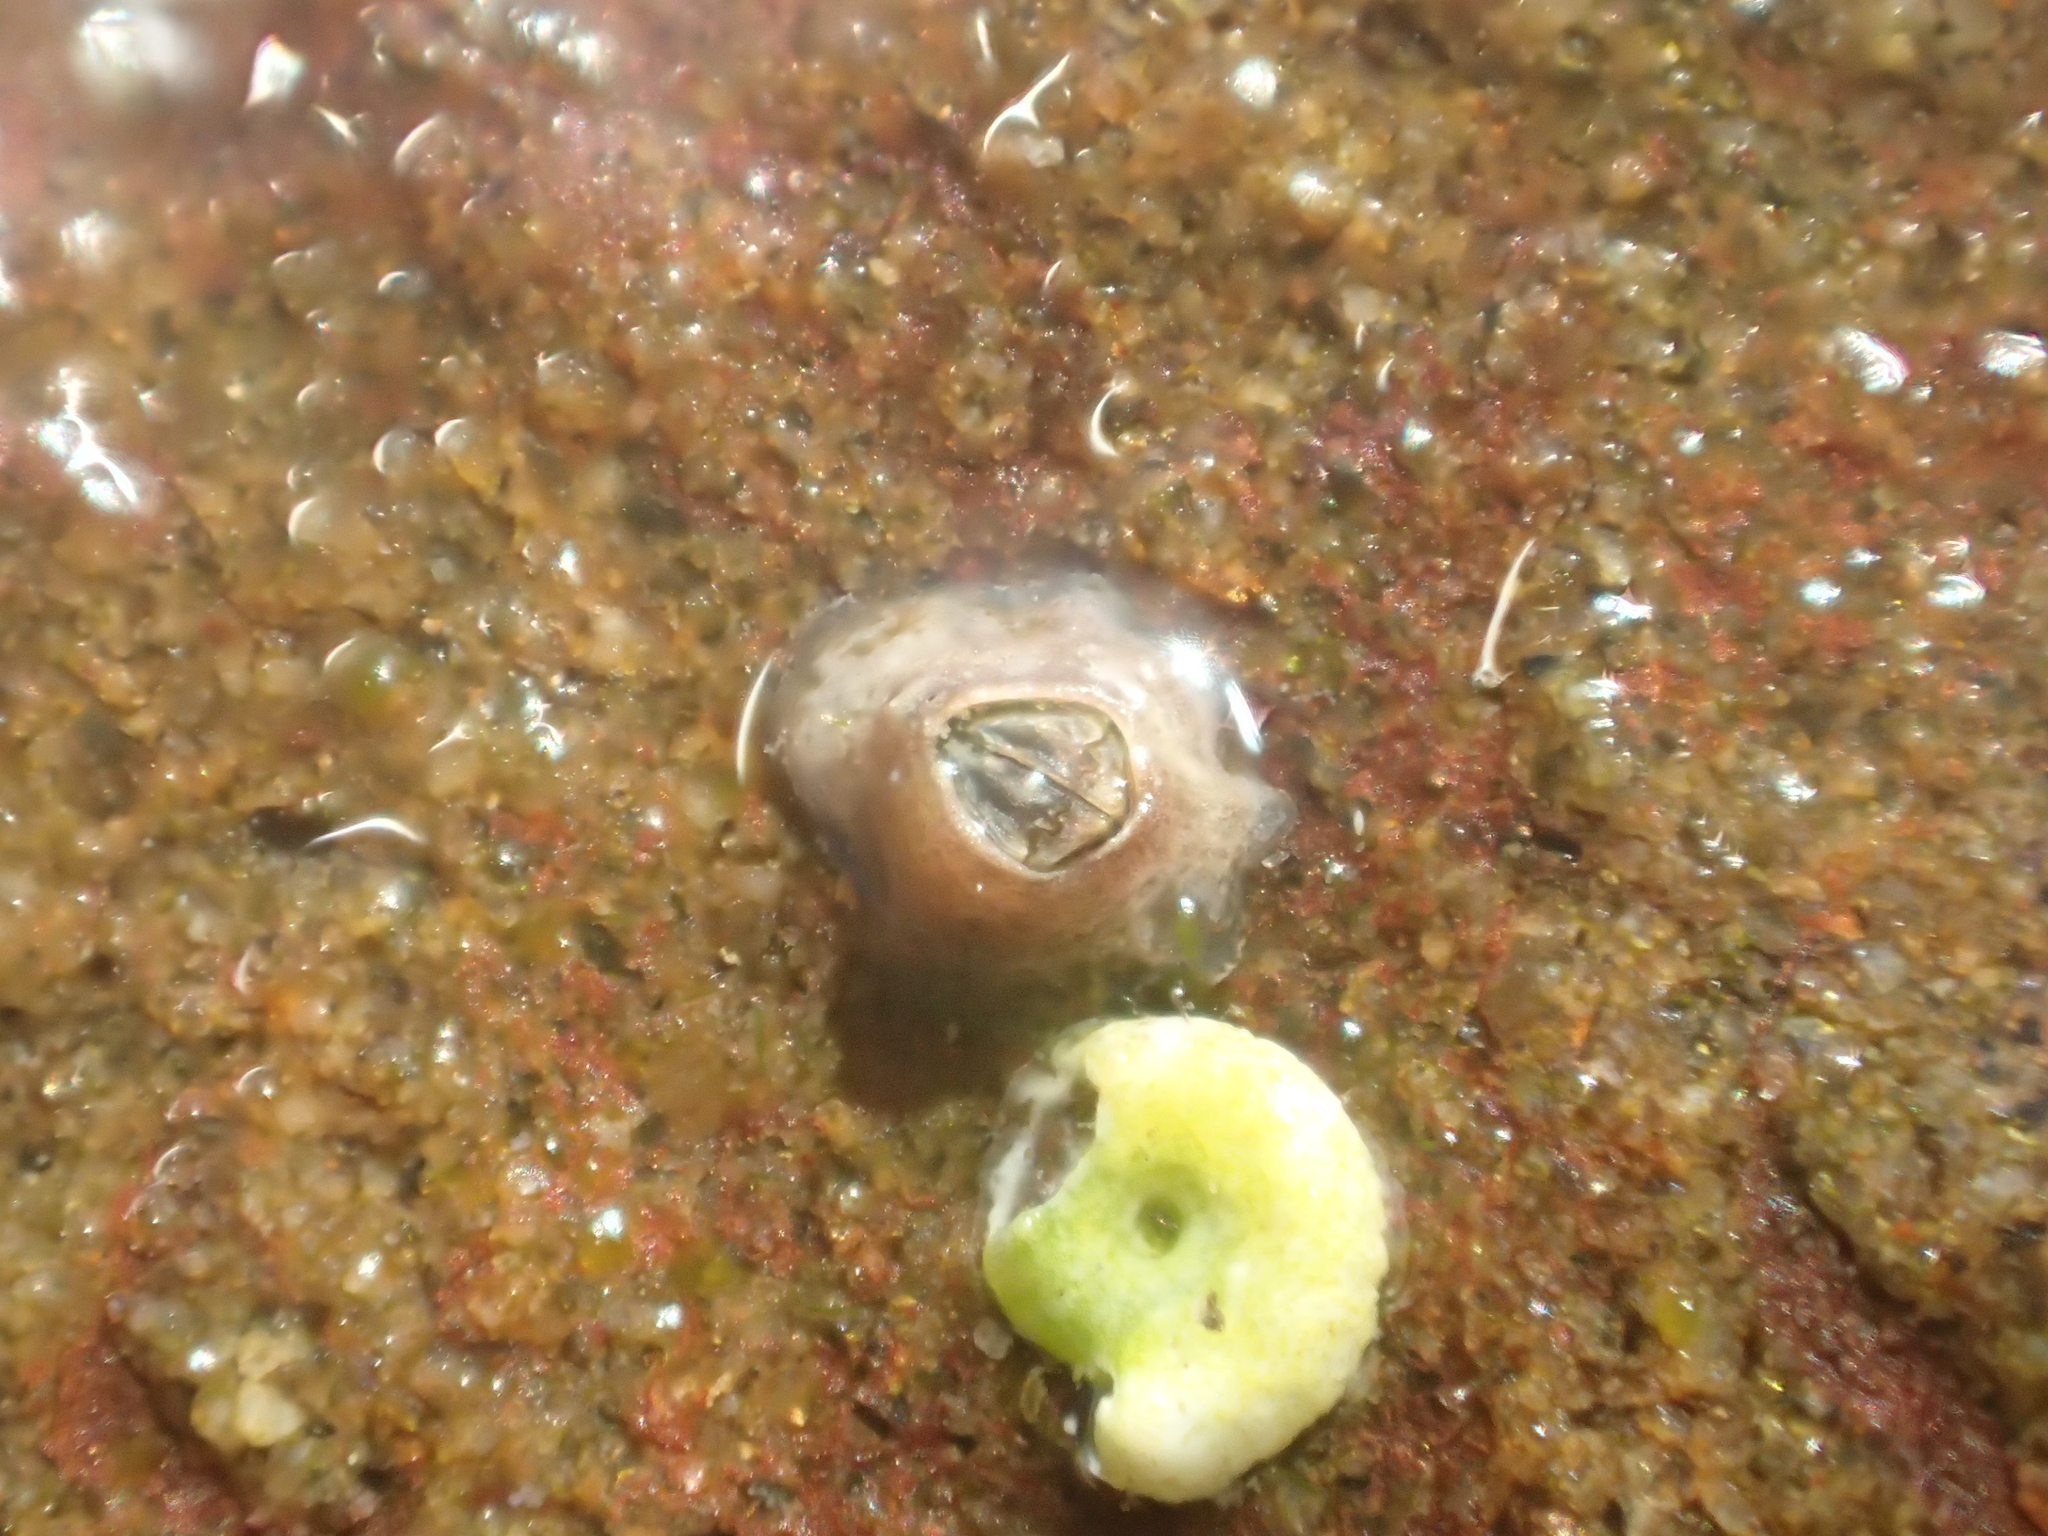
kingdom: Animalia
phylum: Arthropoda
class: Maxillopoda
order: Sessilia
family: Chthamalidae
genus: Chamaesipho
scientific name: Chamaesipho columna
